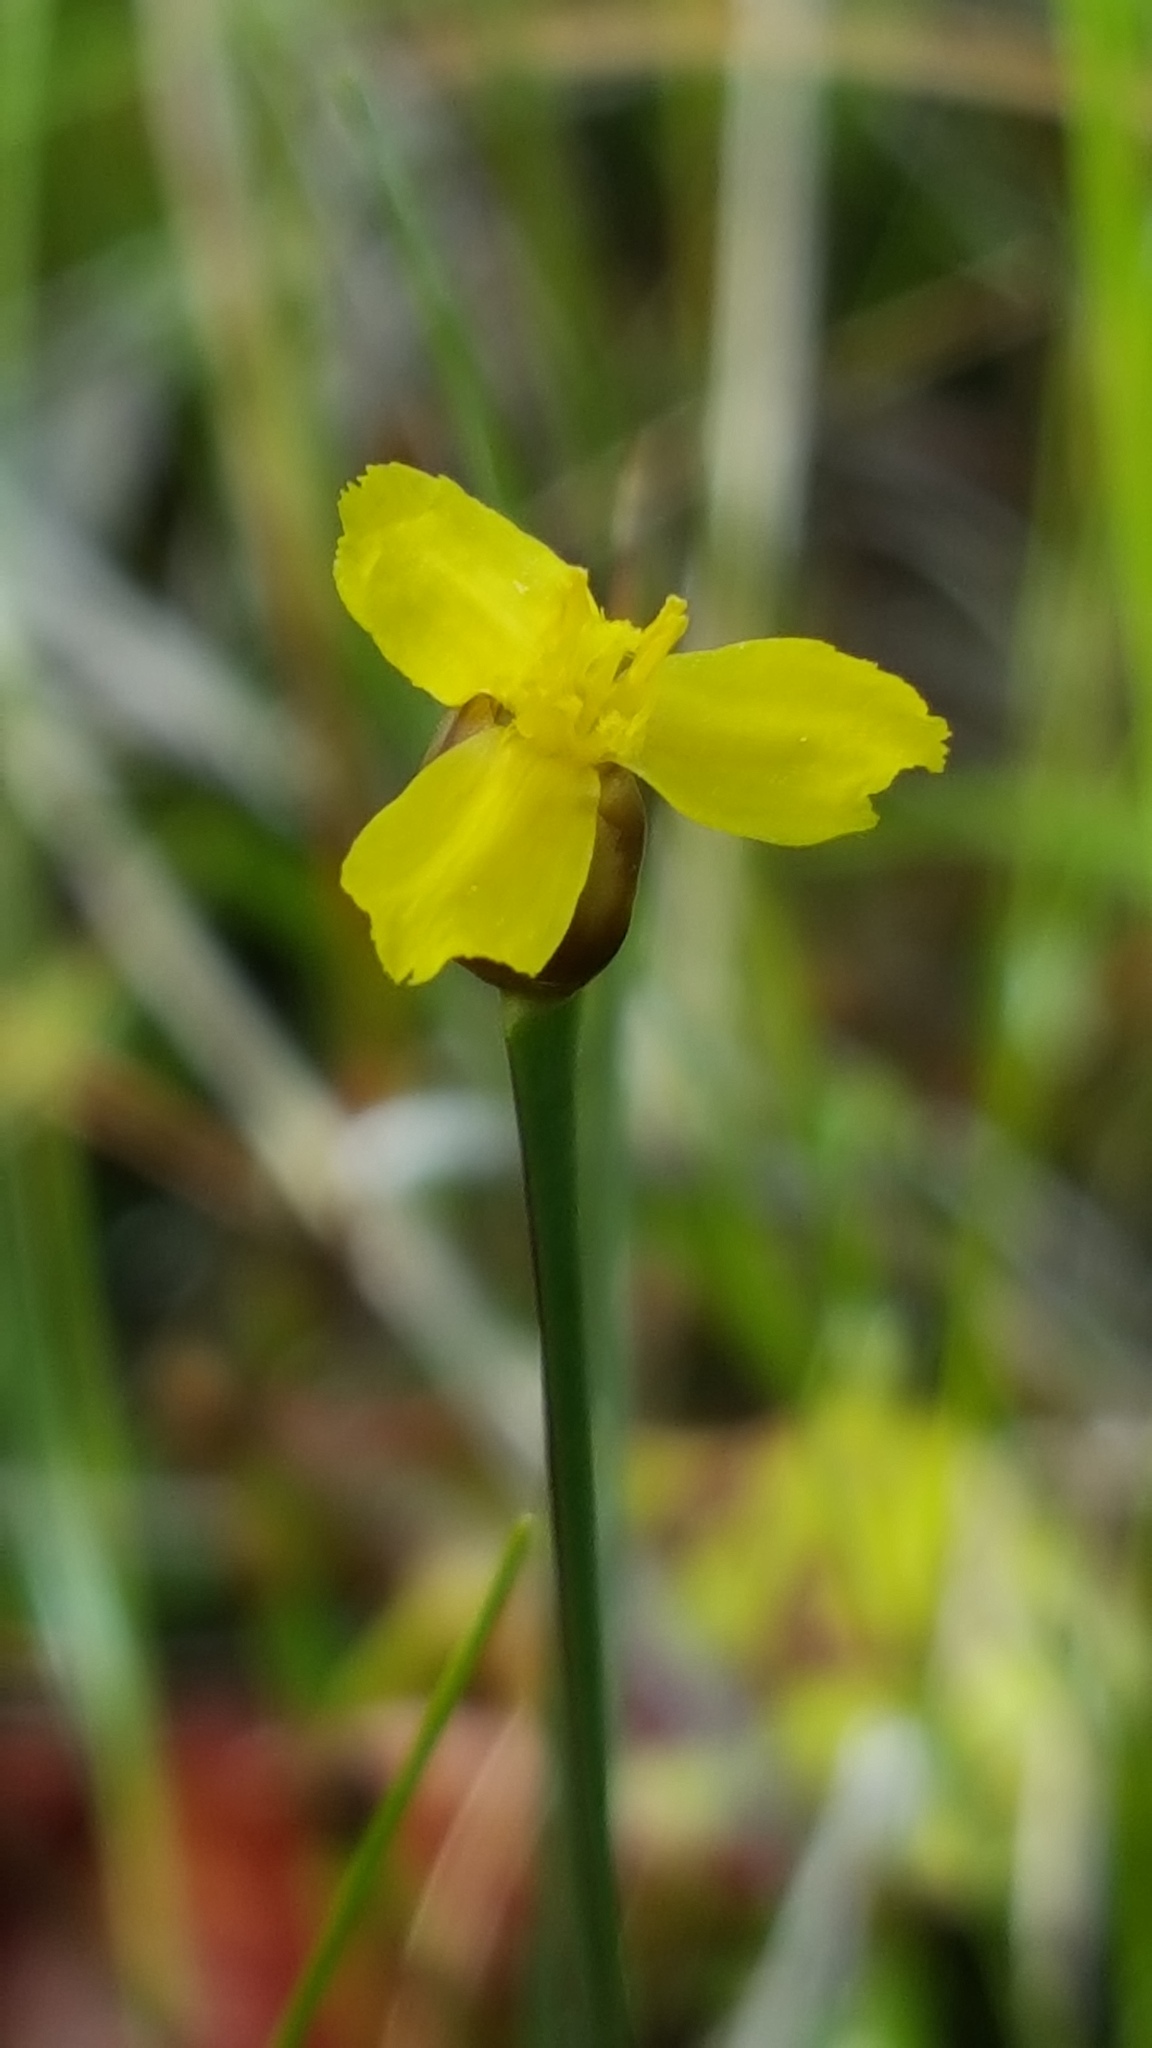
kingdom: Plantae
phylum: Tracheophyta
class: Liliopsida
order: Poales
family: Xyridaceae
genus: Xyris
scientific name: Xyris montana
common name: Northern yellow-eyed-grass
